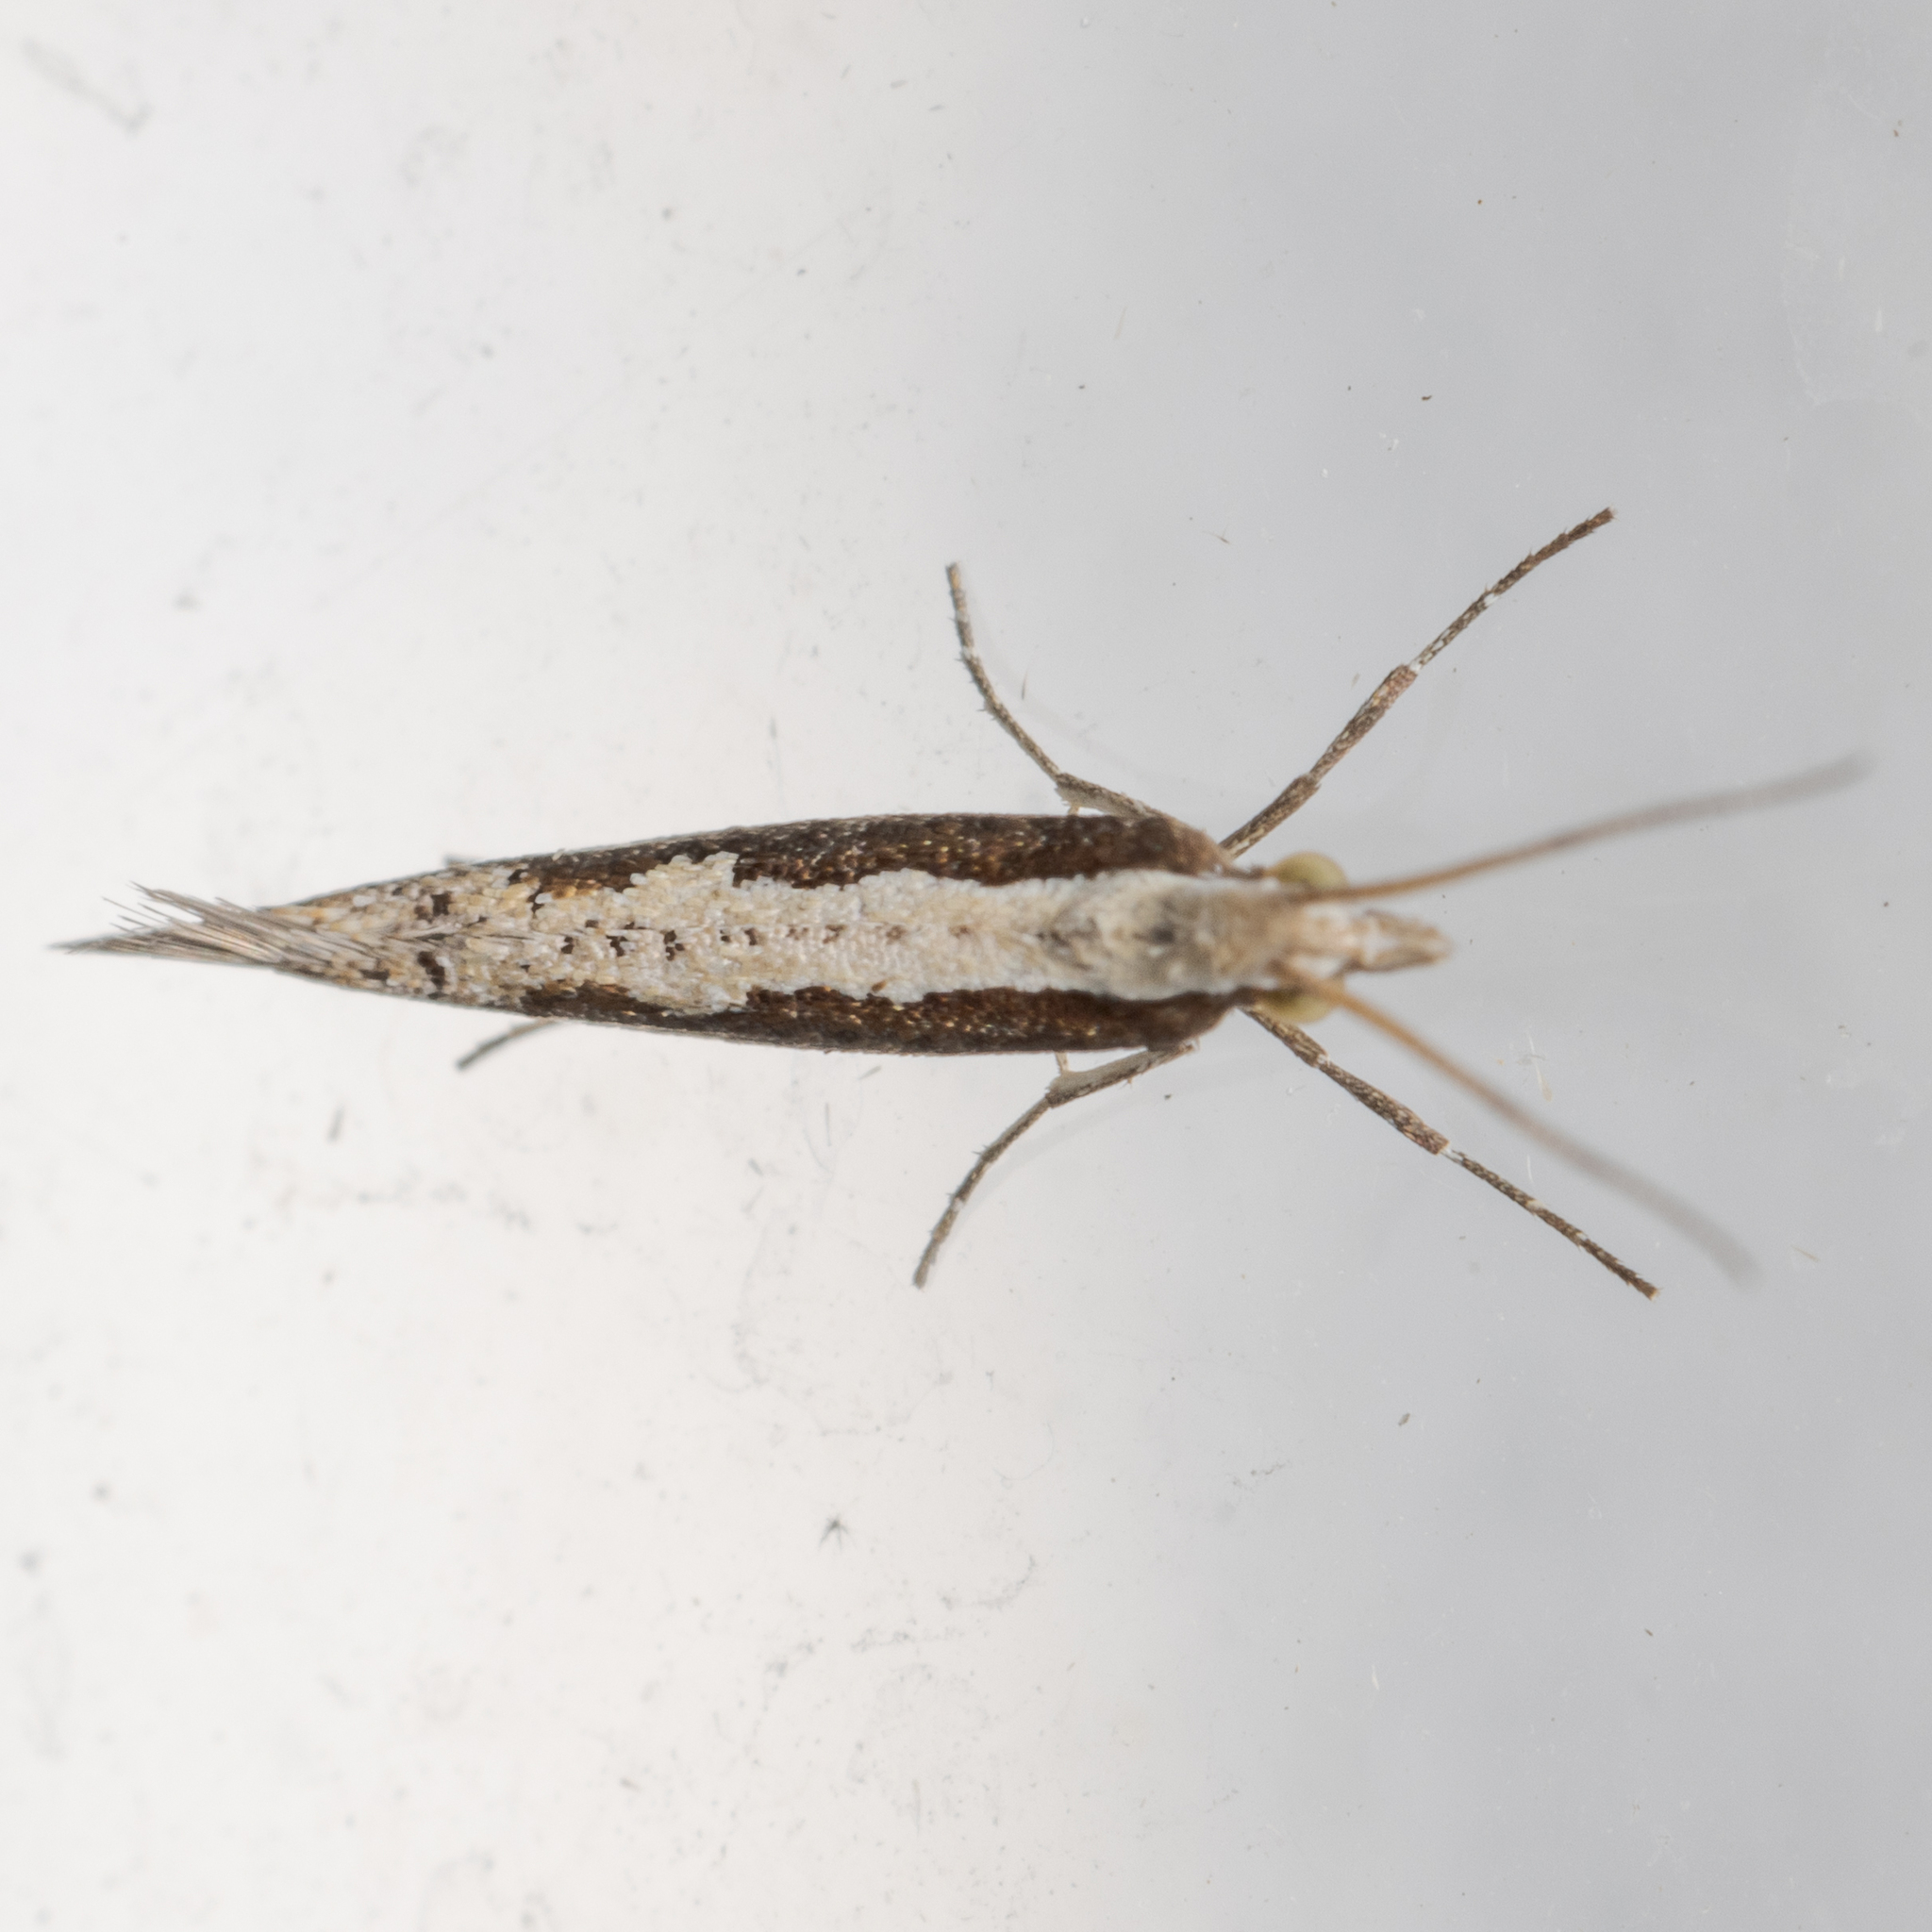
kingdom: Animalia
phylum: Arthropoda
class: Insecta
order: Lepidoptera
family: Plutellidae
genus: Plutella
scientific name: Plutella xylostella
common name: Diamond-back moth
